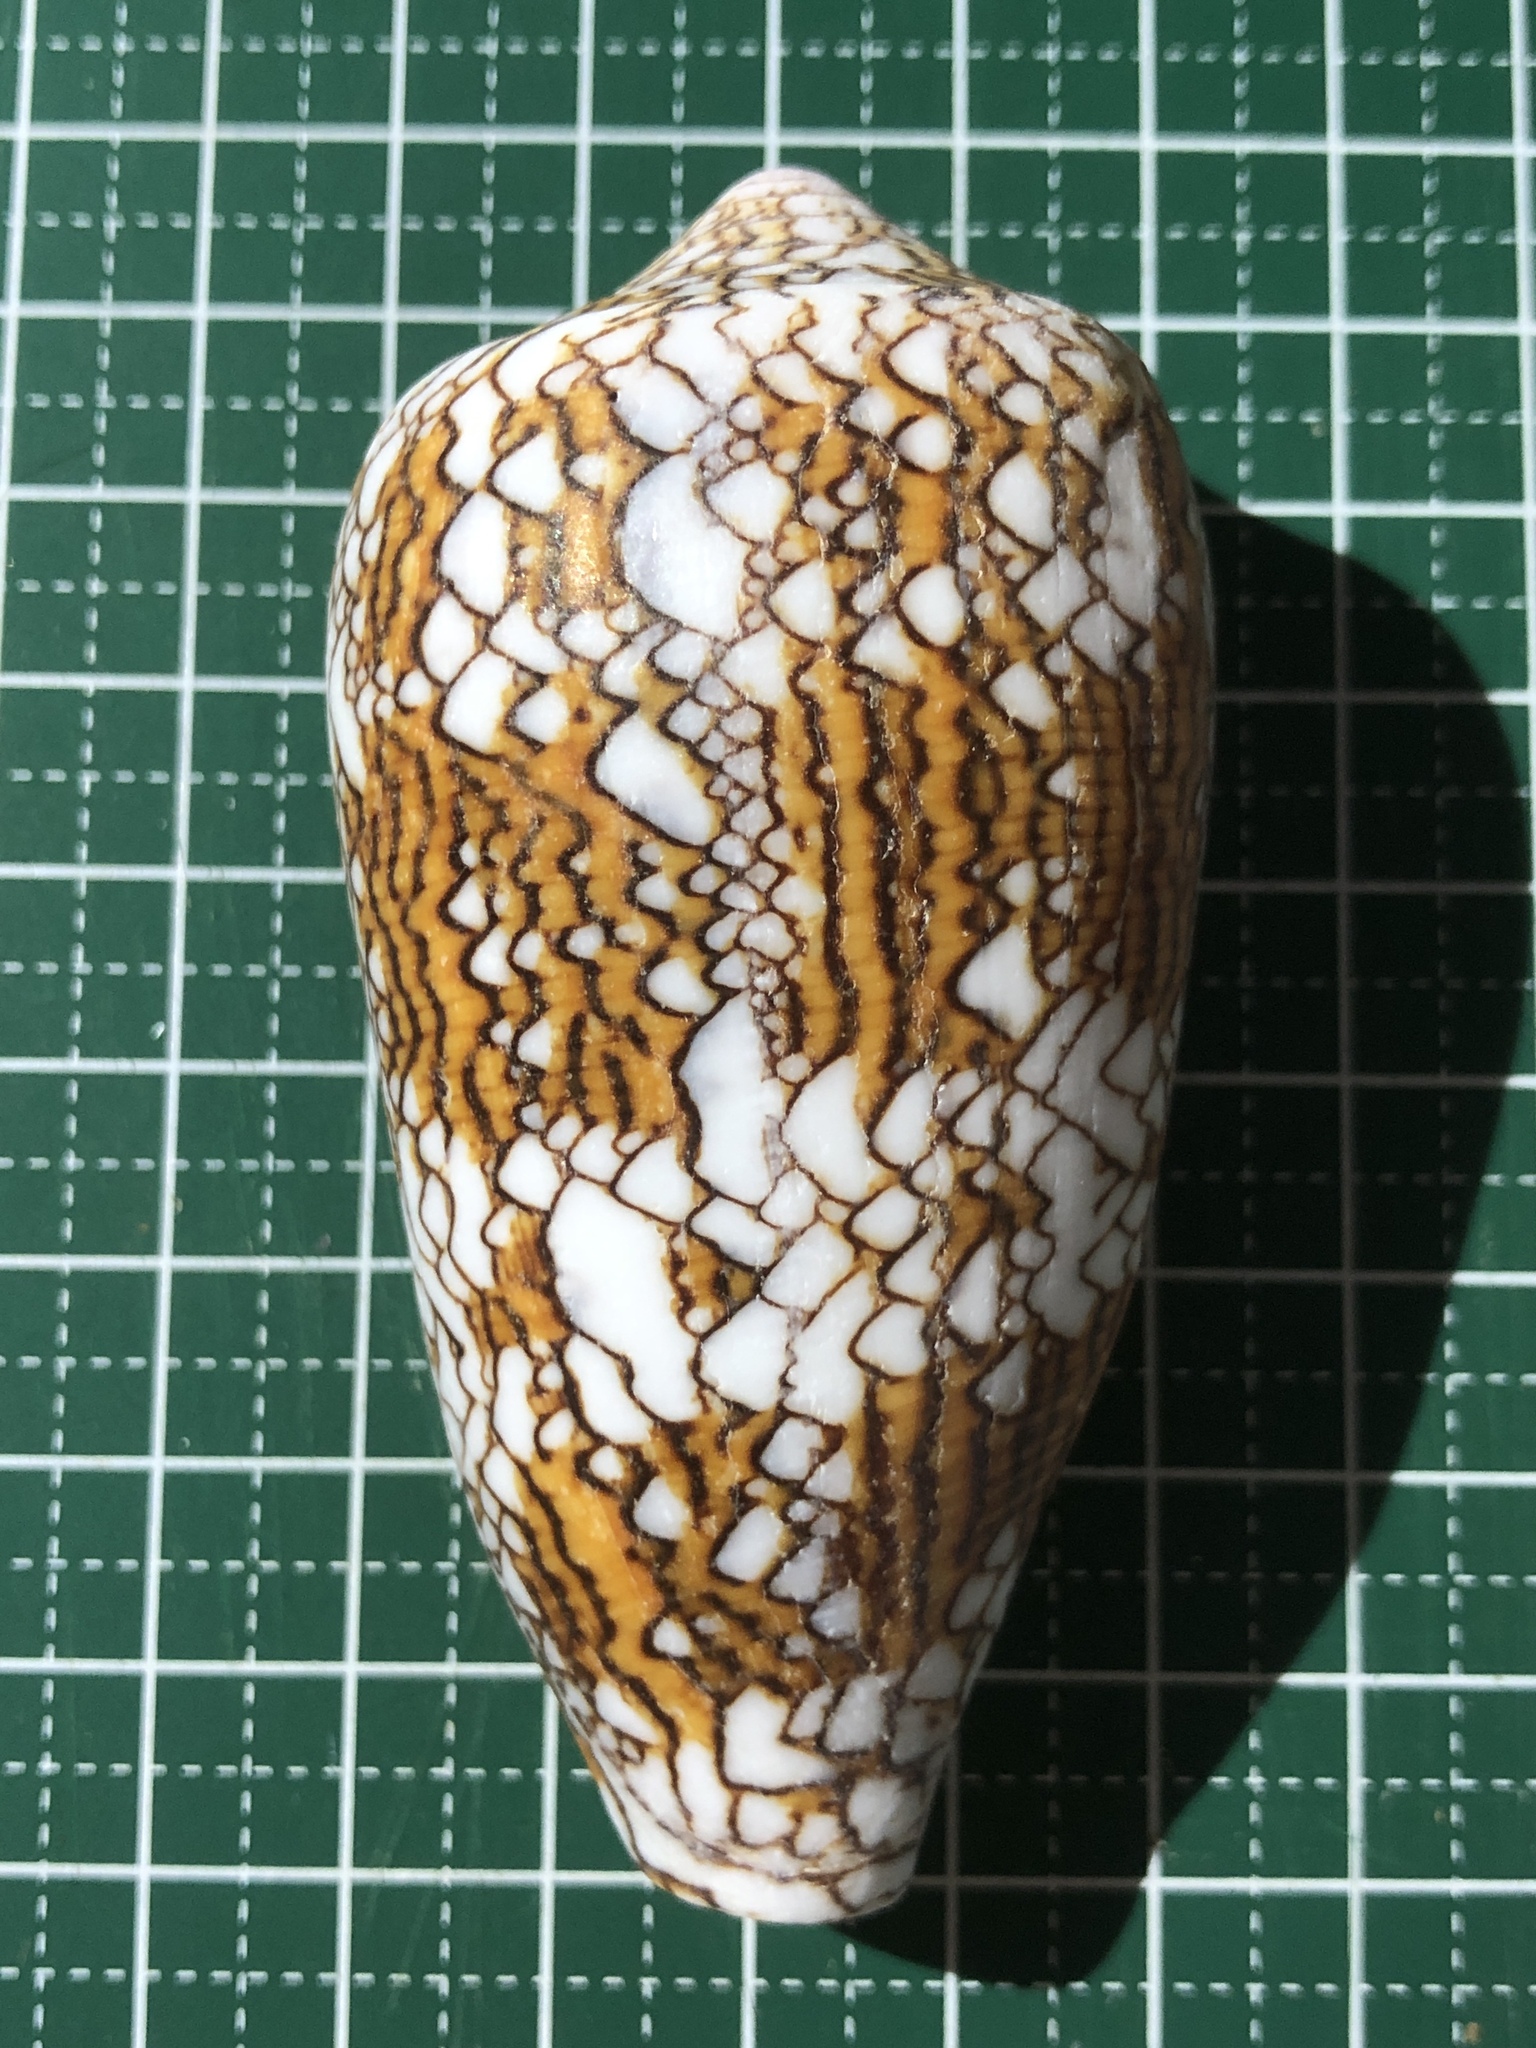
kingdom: Animalia
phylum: Mollusca
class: Gastropoda
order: Neogastropoda
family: Conidae
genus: Conus
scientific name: Conus textile
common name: Cloth-of-gold cone
